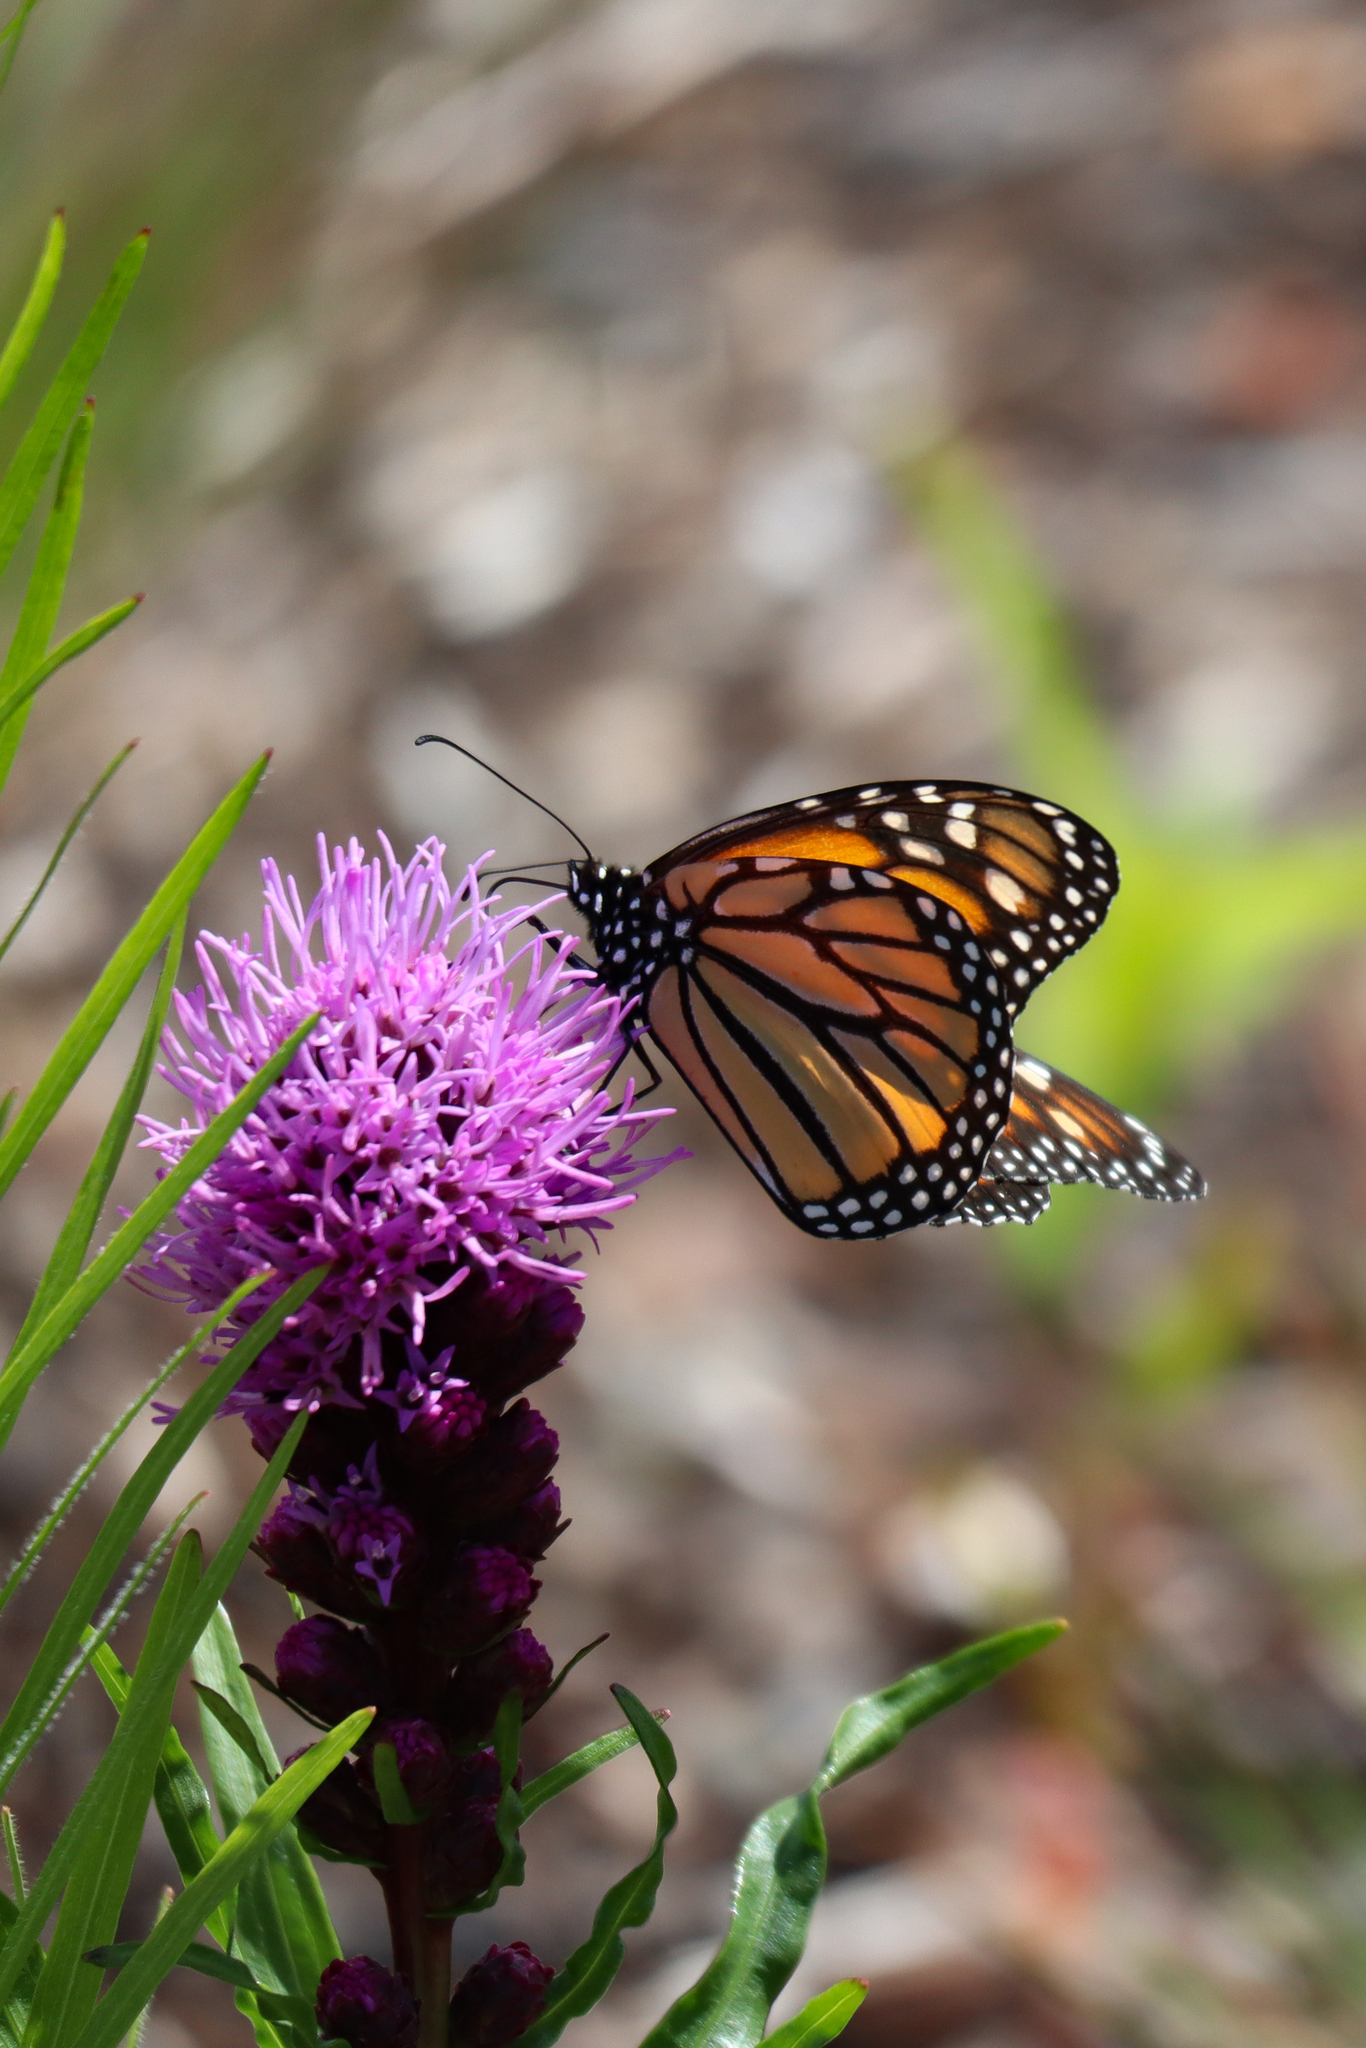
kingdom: Animalia
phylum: Arthropoda
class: Insecta
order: Lepidoptera
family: Nymphalidae
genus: Danaus
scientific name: Danaus plexippus
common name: Monarch
